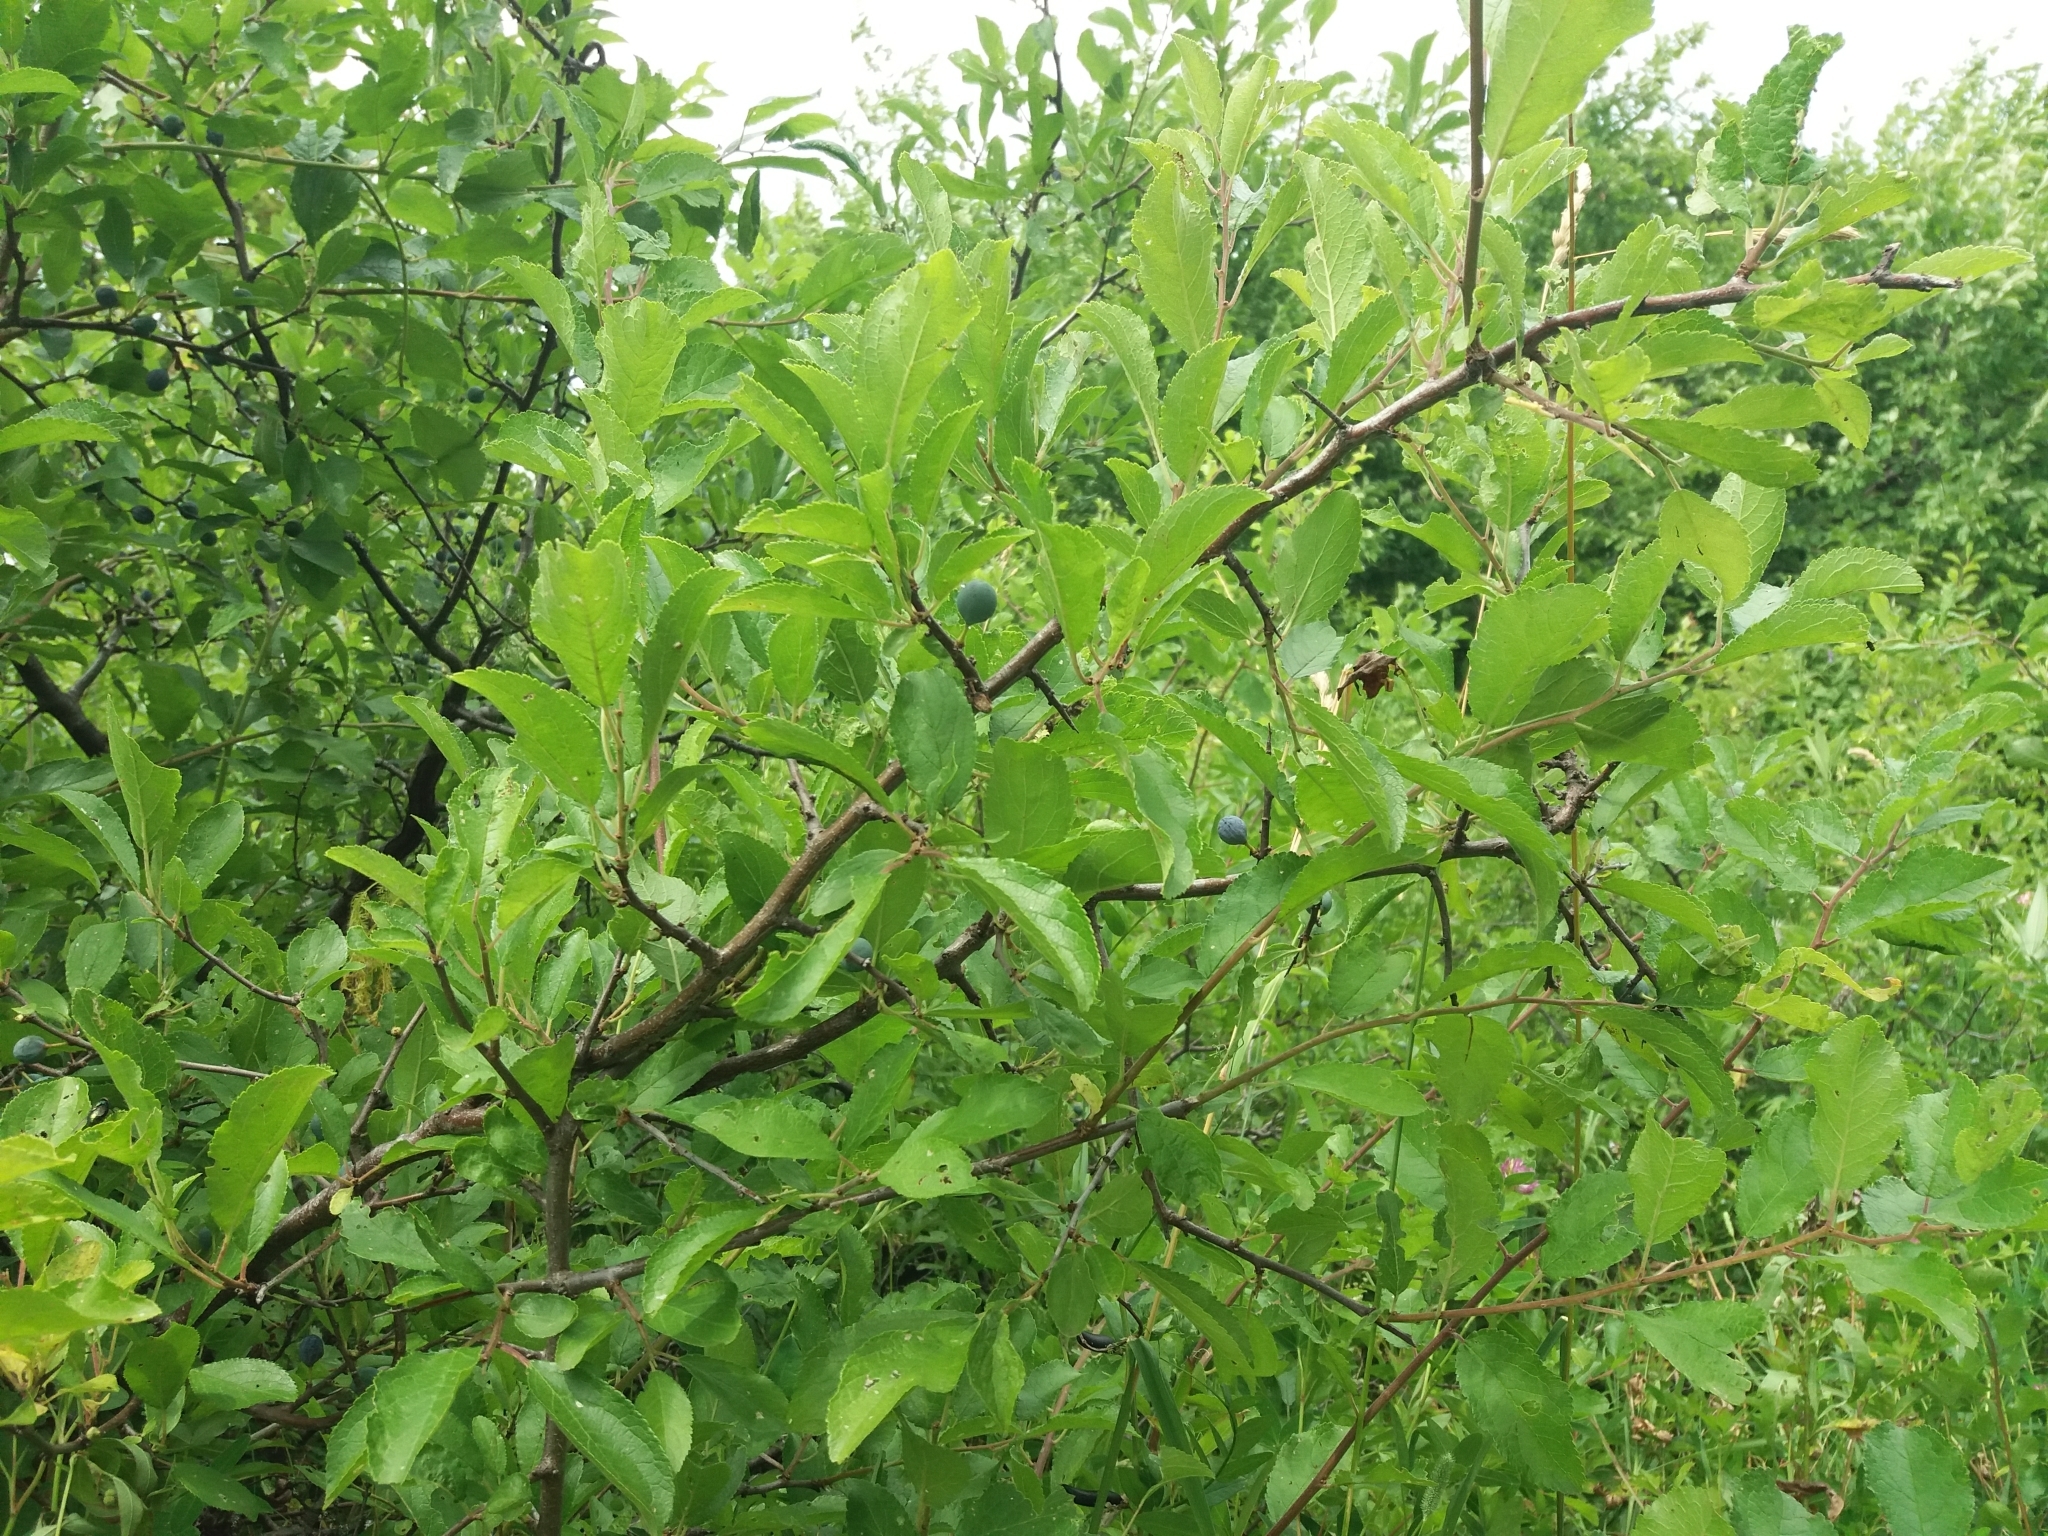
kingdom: Plantae
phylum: Tracheophyta
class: Magnoliopsida
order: Rosales
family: Rosaceae
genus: Prunus
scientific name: Prunus spinosa
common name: Blackthorn
